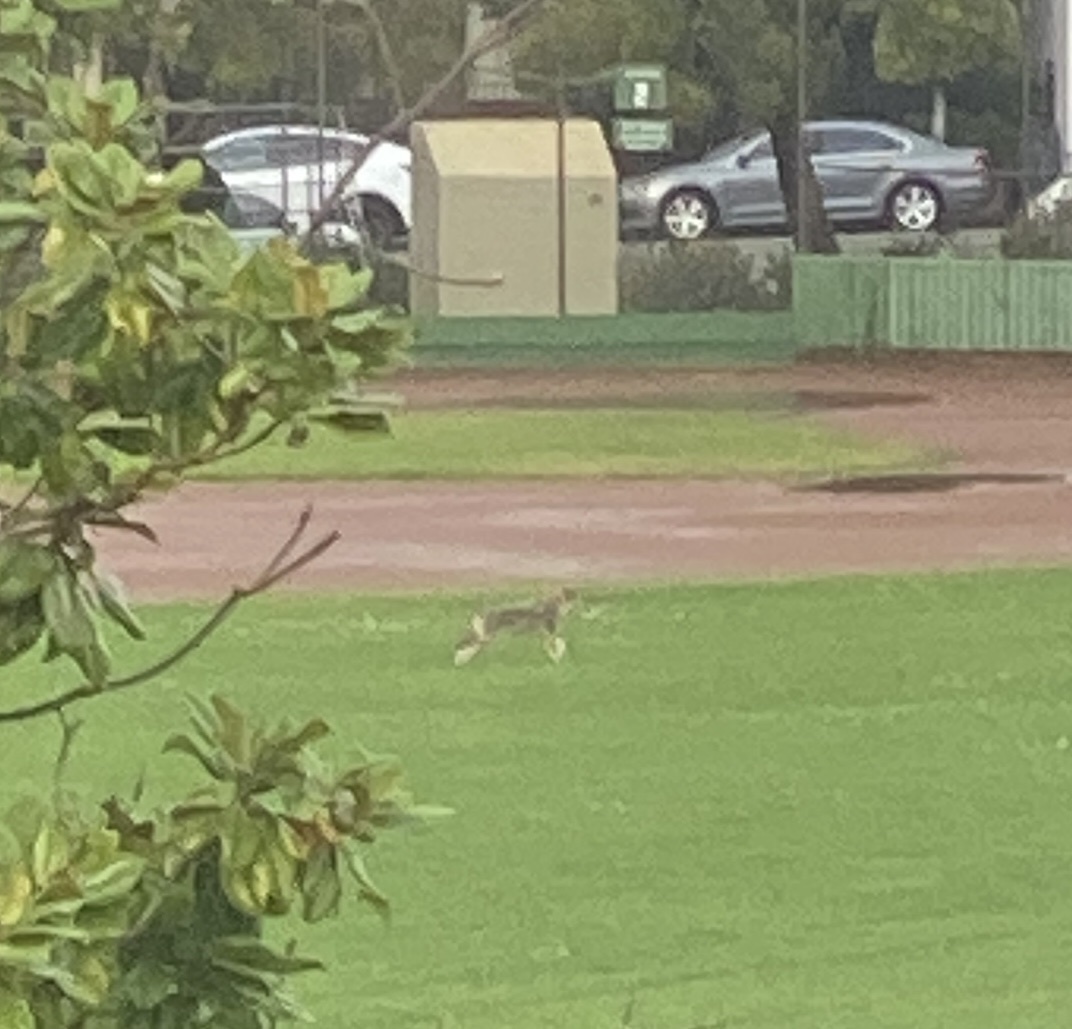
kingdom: Animalia
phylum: Chordata
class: Mammalia
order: Carnivora
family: Canidae
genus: Canis
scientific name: Canis latrans
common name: Coyote
